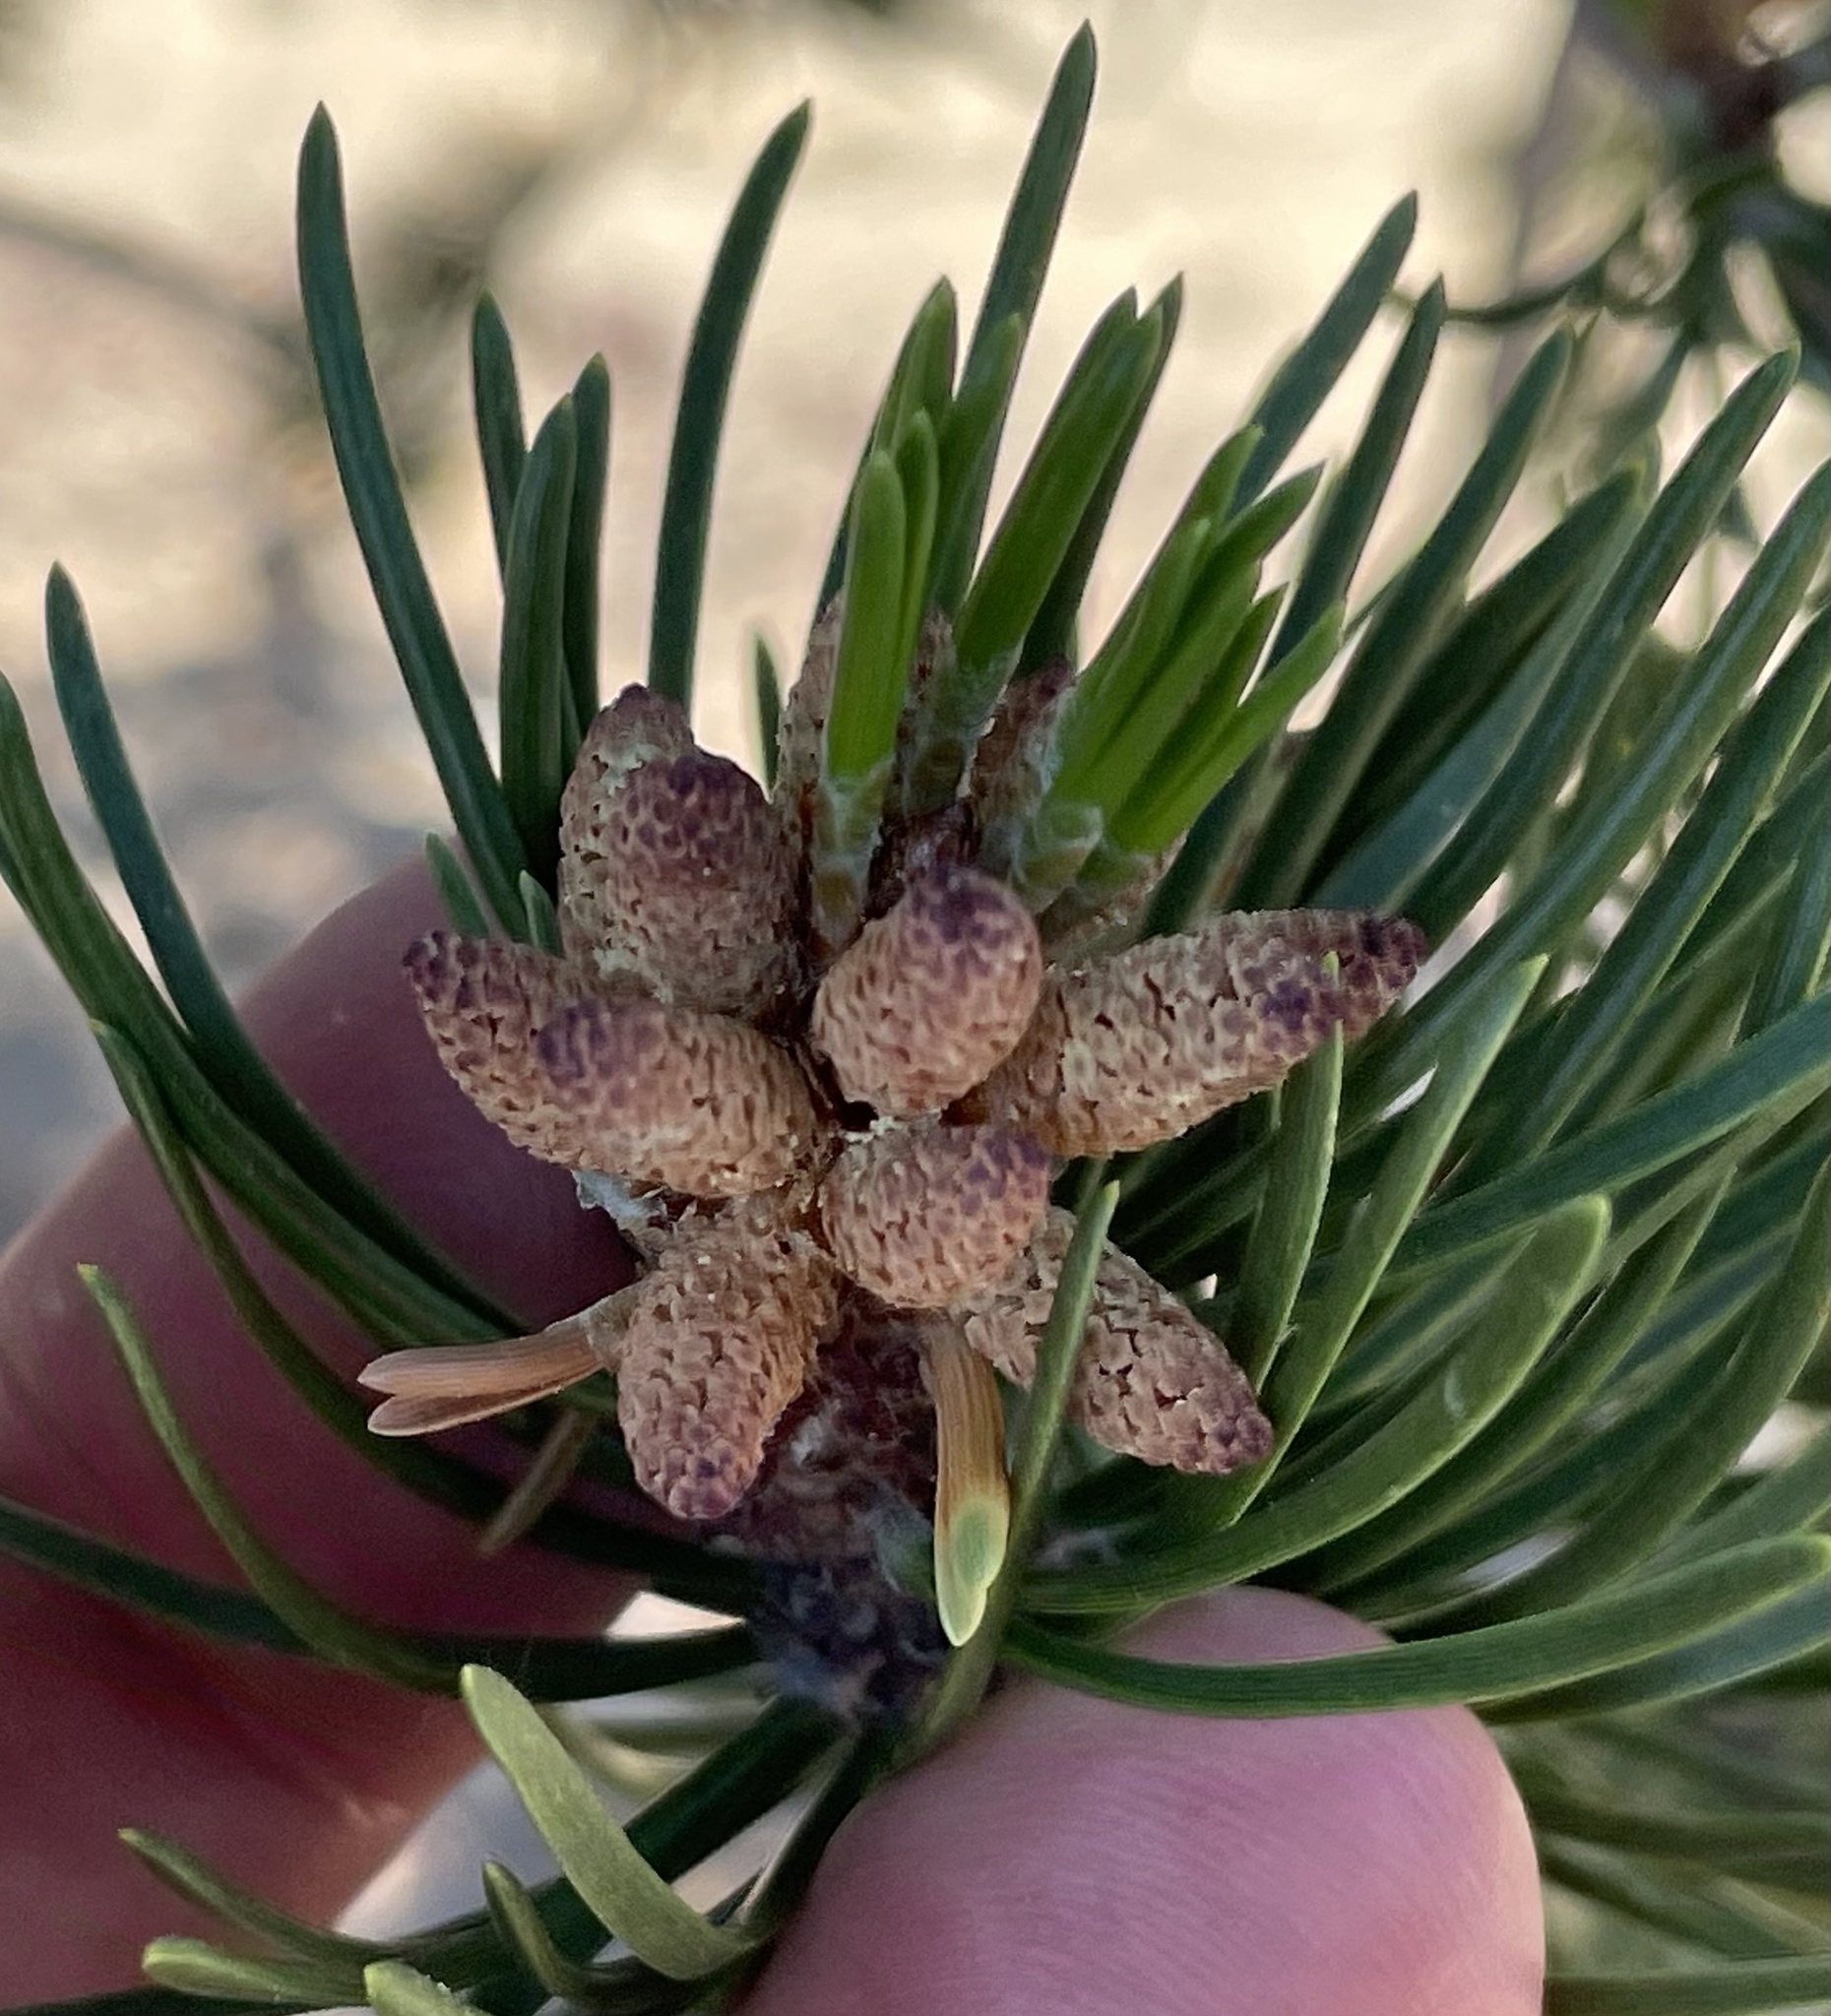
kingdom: Plantae
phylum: Tracheophyta
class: Pinopsida
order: Pinales
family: Pinaceae
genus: Pinus
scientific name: Pinus contorta
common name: Lodgepole pine
